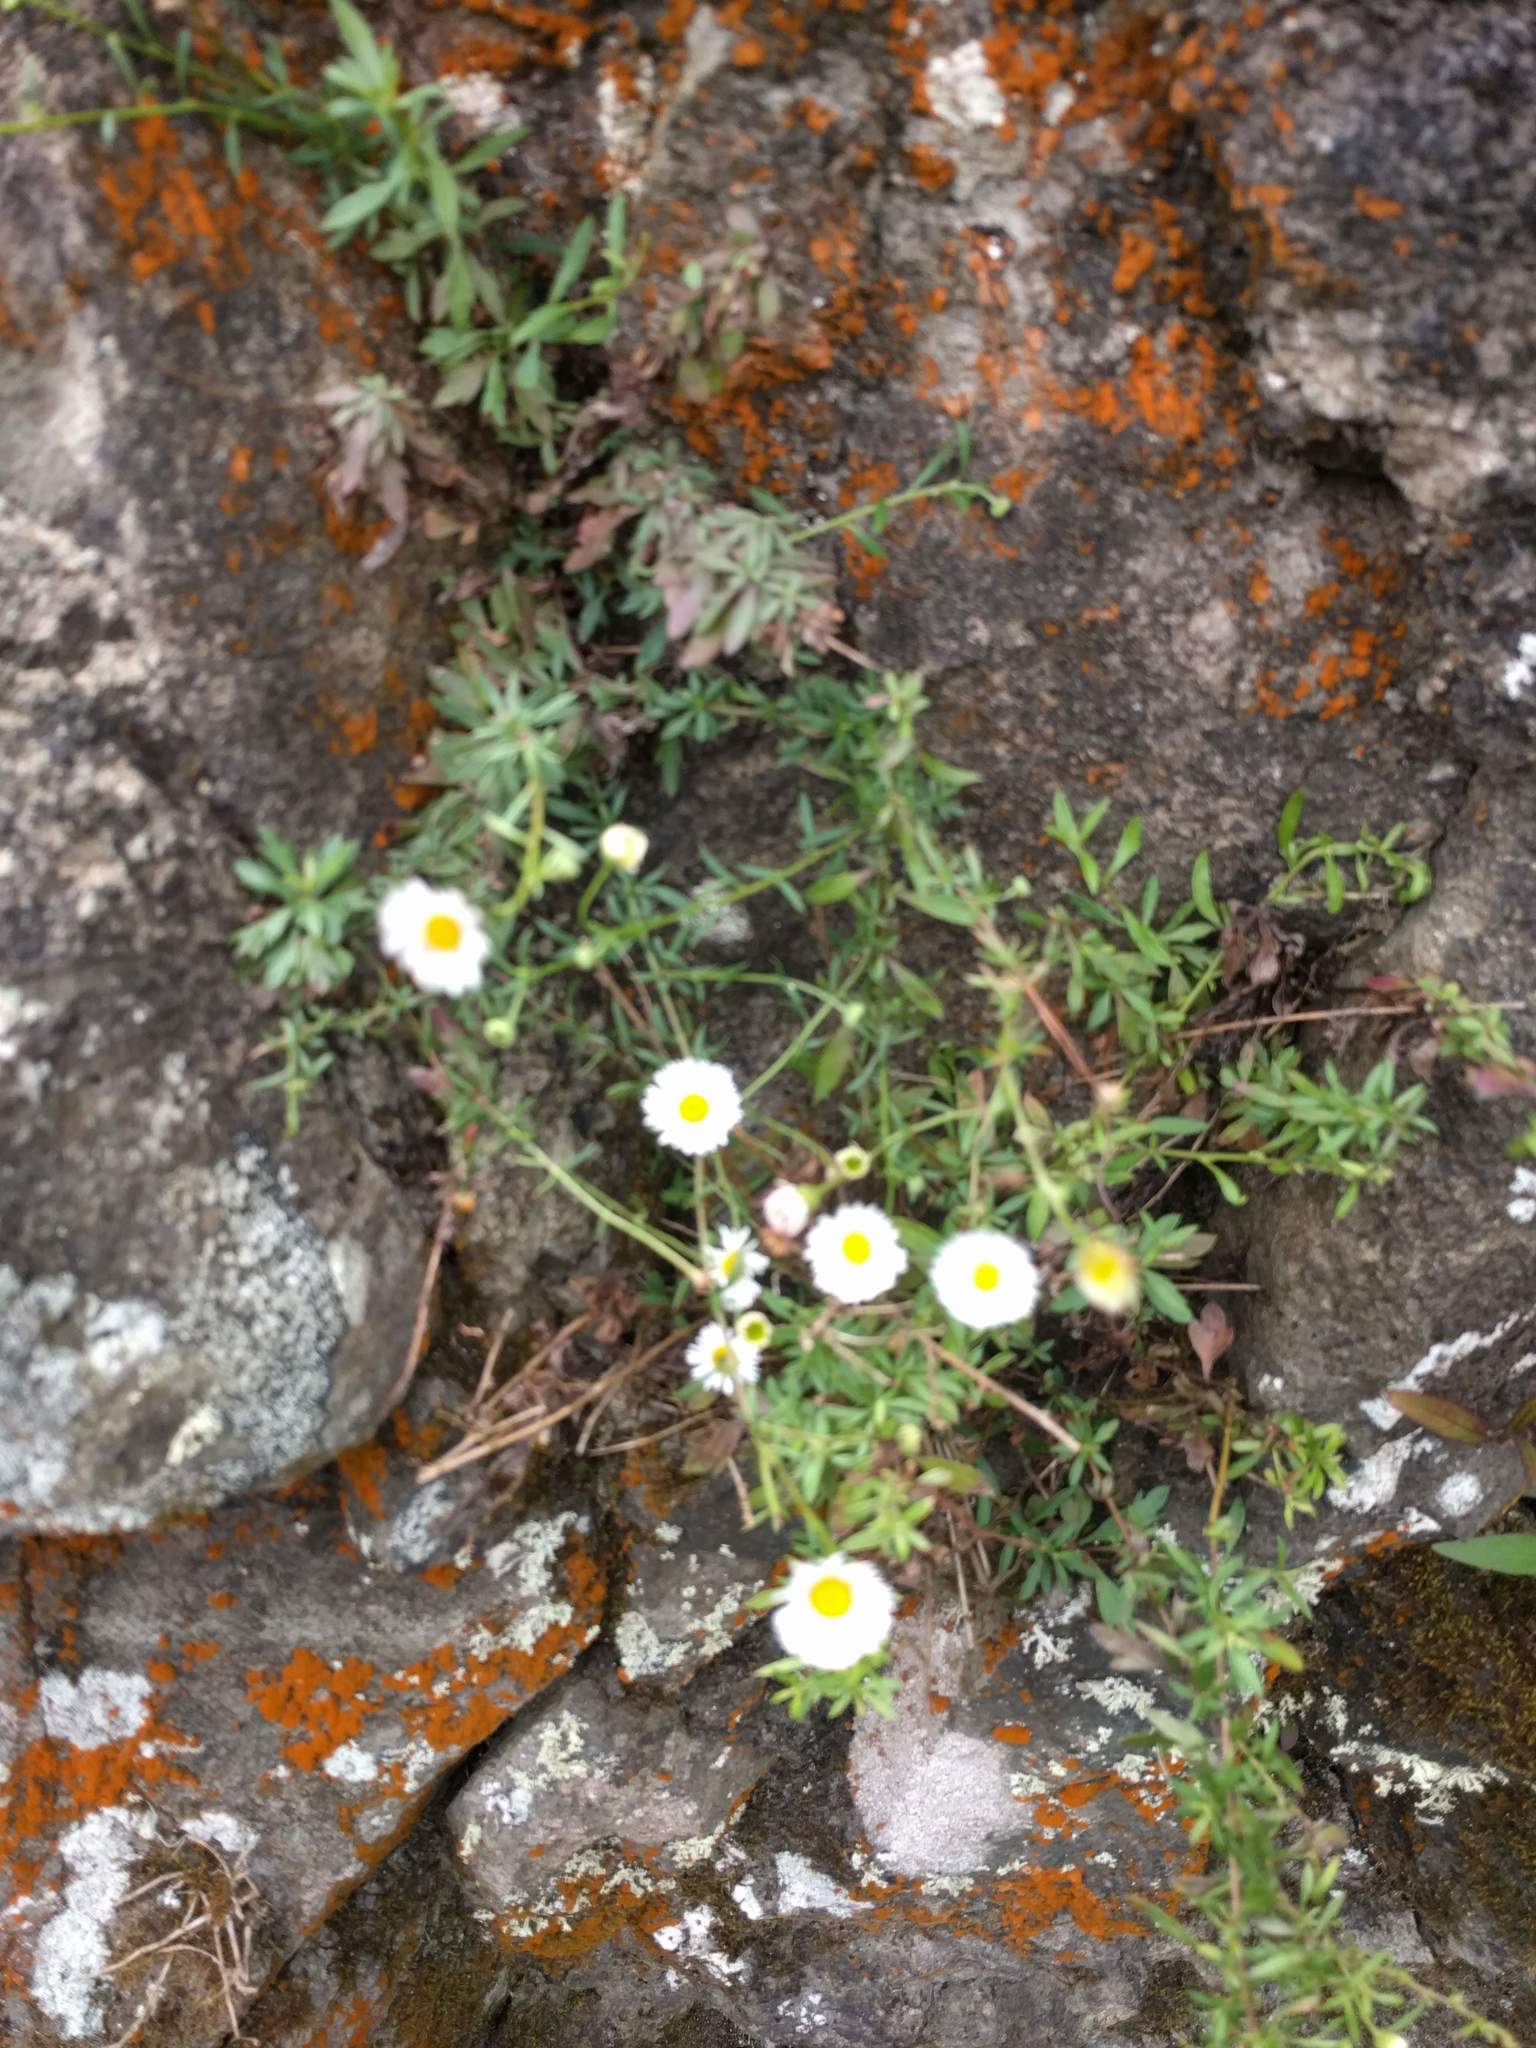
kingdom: Plantae
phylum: Tracheophyta
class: Magnoliopsida
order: Asterales
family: Asteraceae
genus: Erigeron
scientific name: Erigeron karvinskianus
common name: Mexican fleabane
